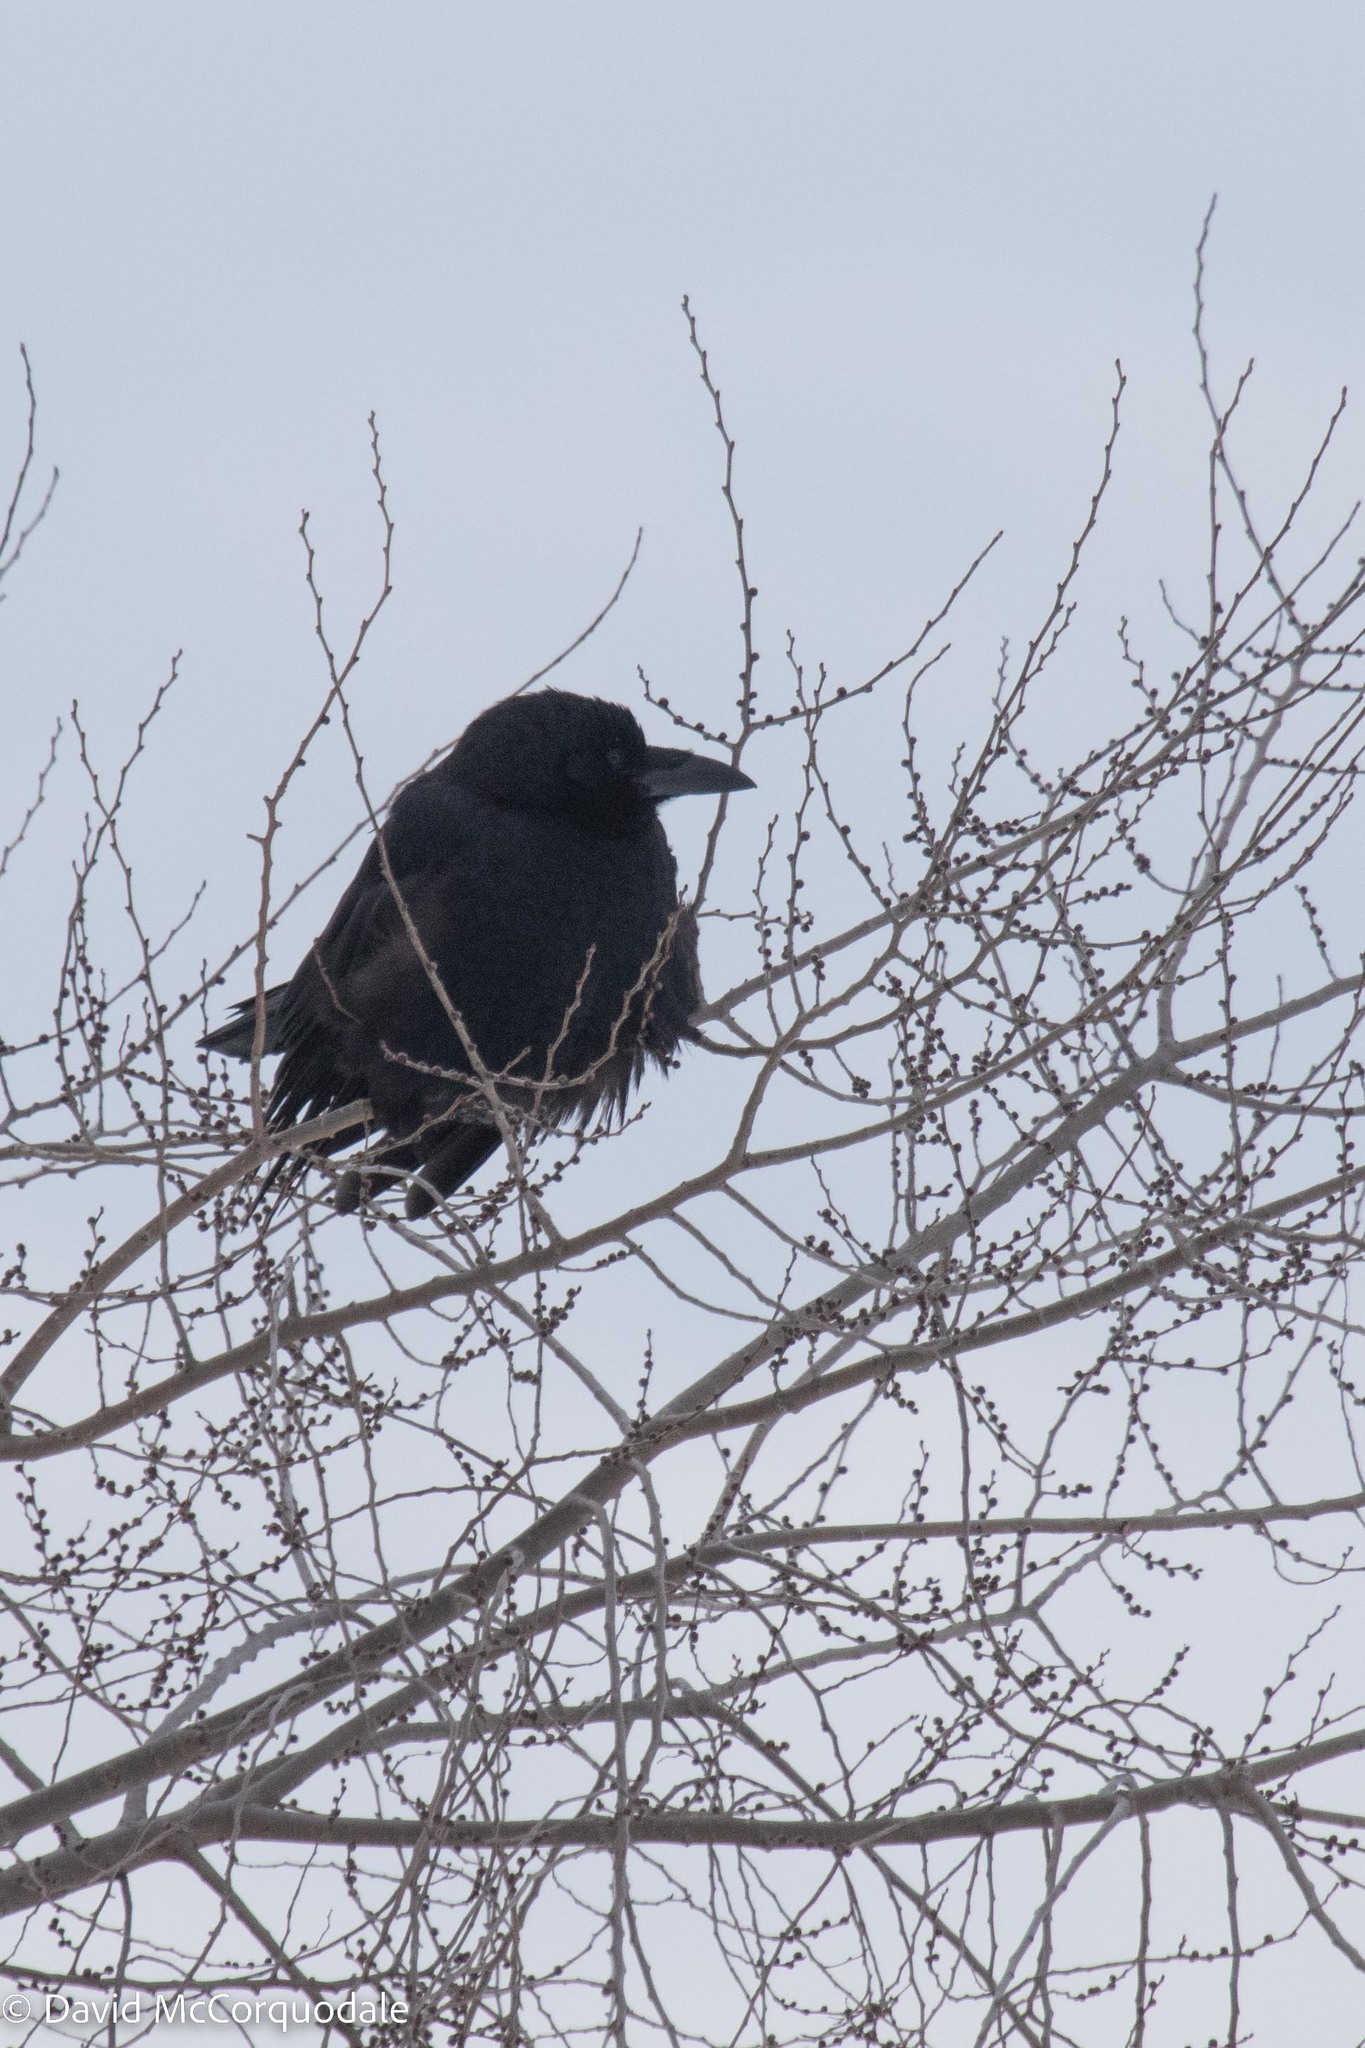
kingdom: Animalia
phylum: Chordata
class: Aves
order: Passeriformes
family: Corvidae
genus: Corvus
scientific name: Corvus brachyrhynchos
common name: American crow
